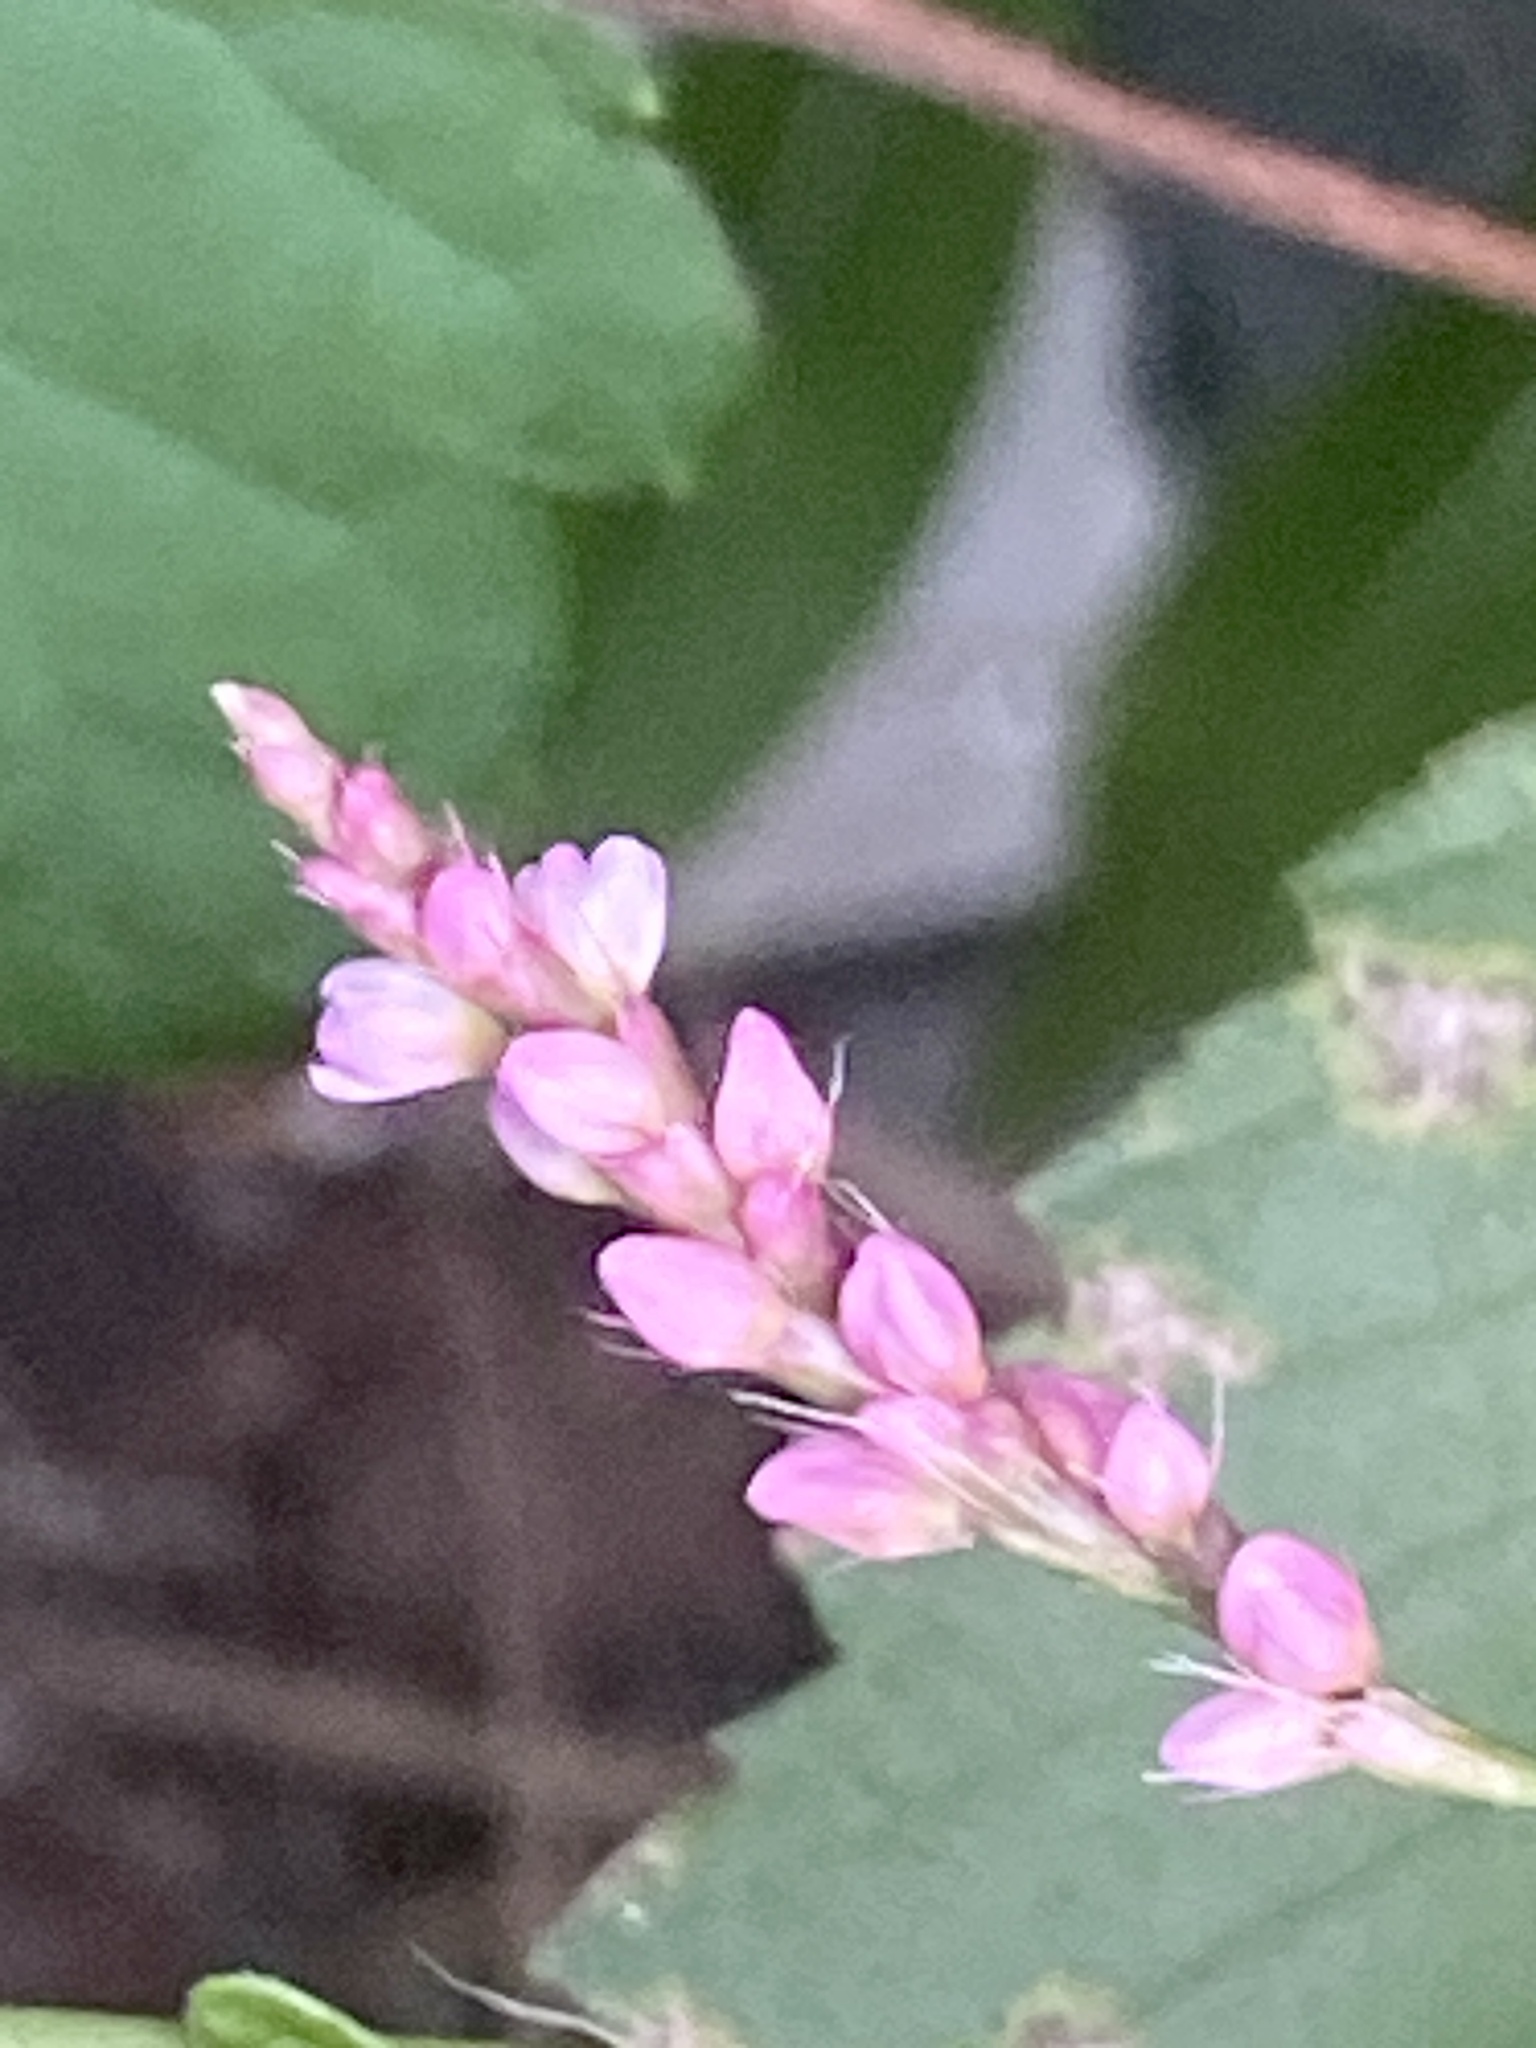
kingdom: Plantae
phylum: Tracheophyta
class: Magnoliopsida
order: Caryophyllales
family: Polygonaceae
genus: Persicaria
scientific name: Persicaria longiseta
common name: Bristly lady's-thumb
